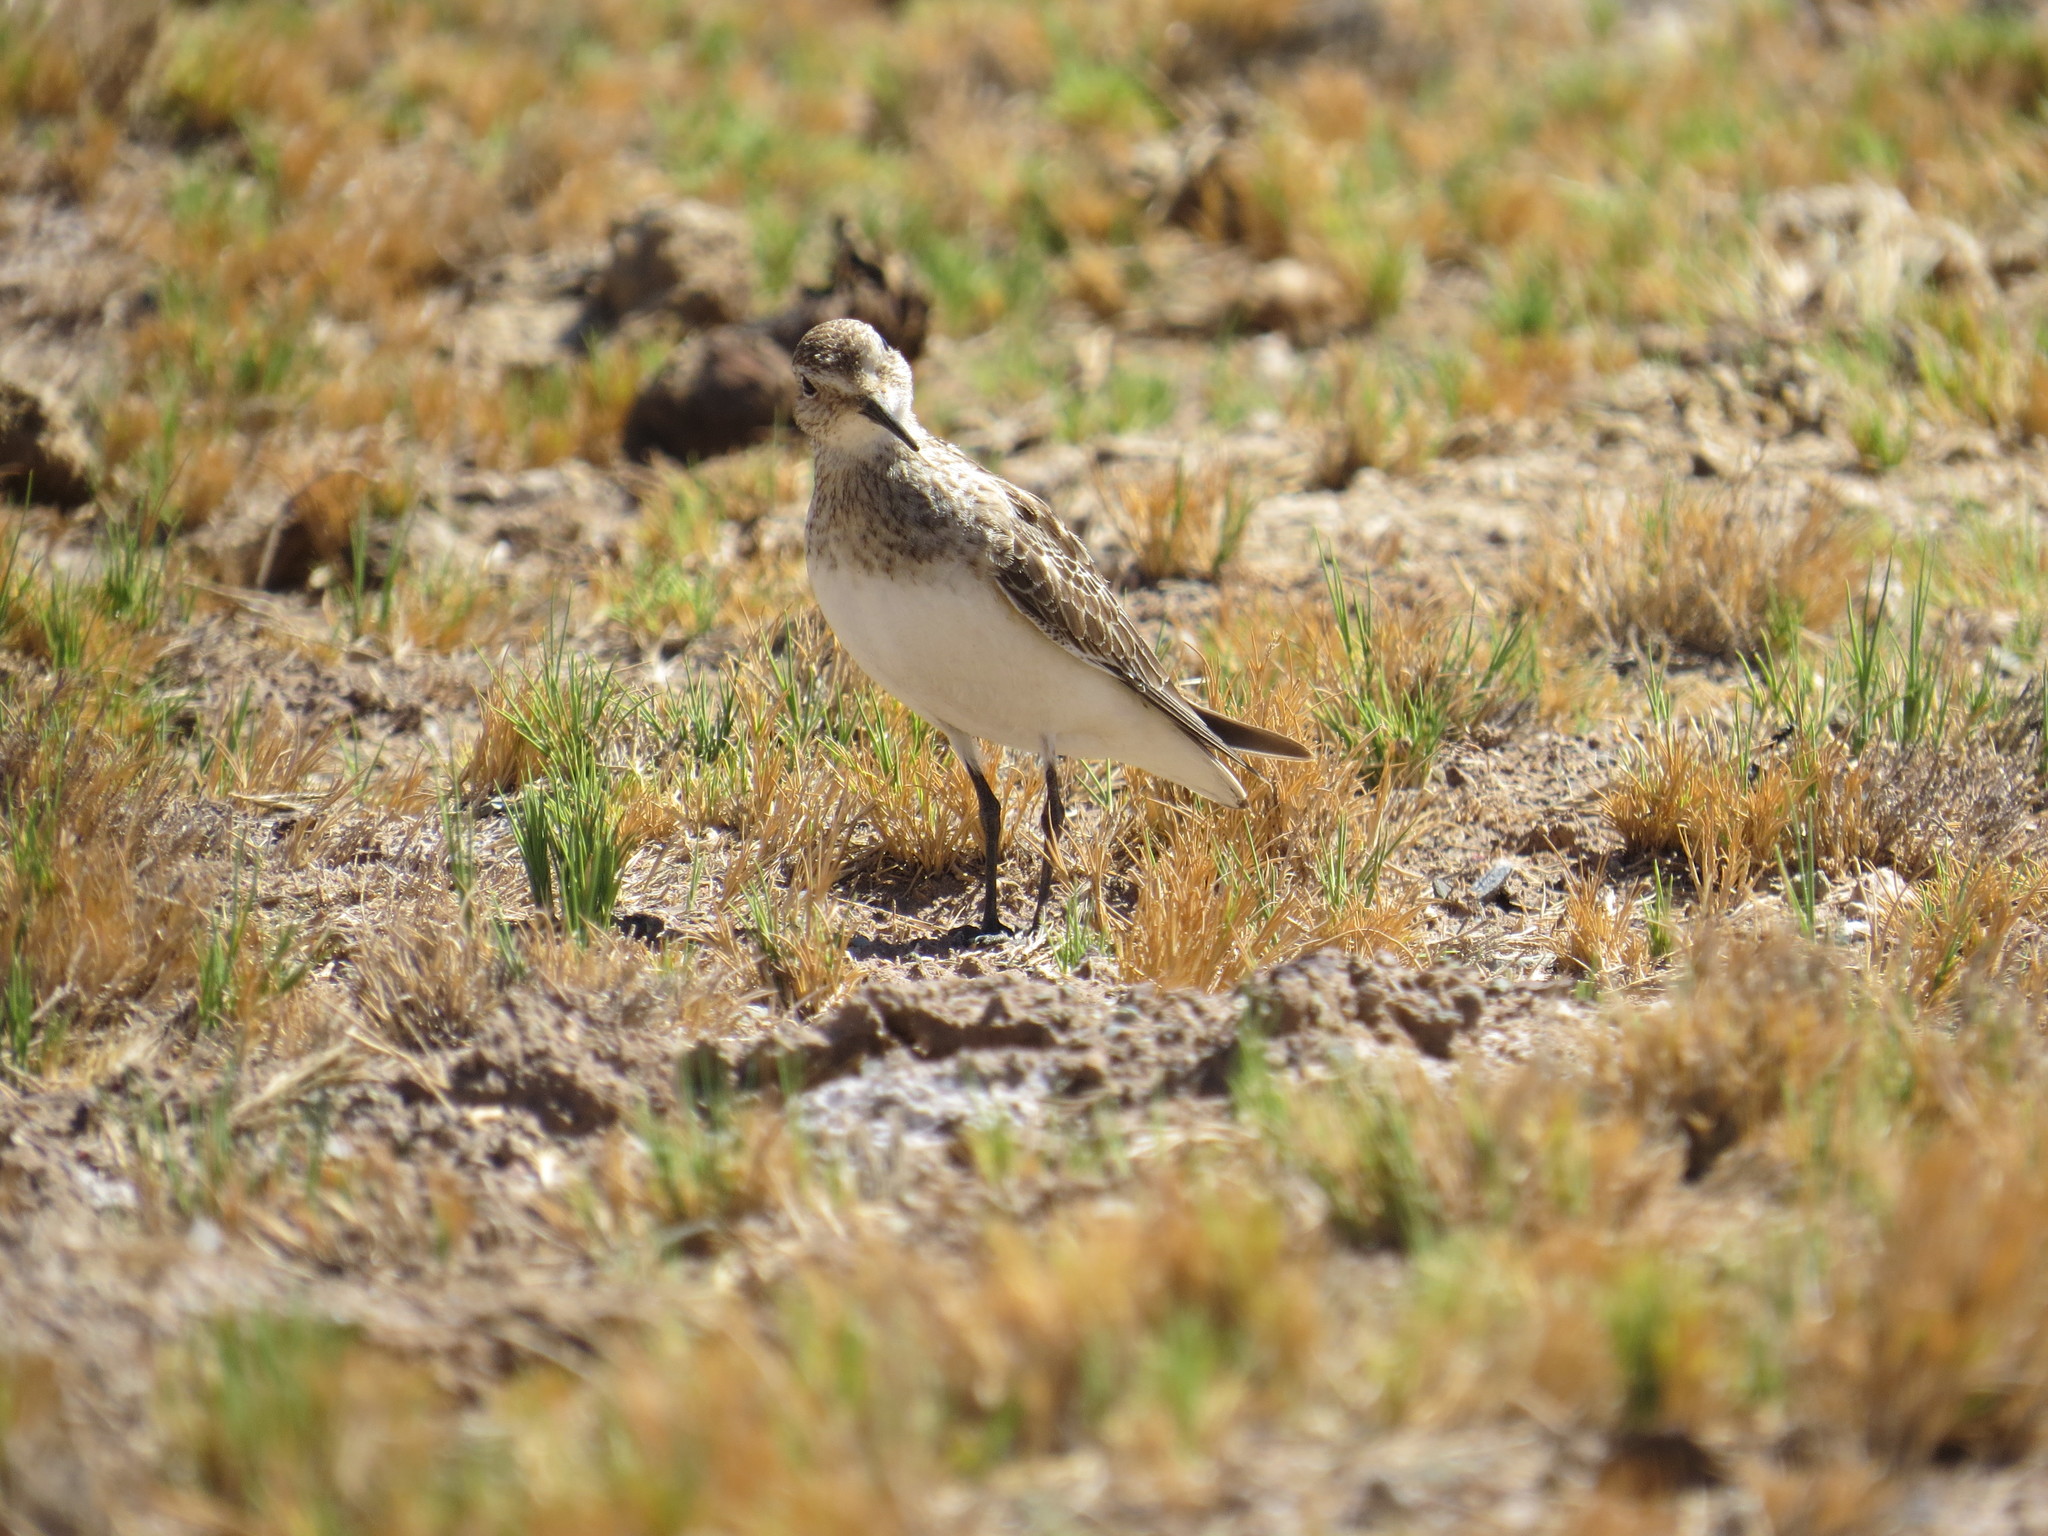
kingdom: Animalia
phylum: Chordata
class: Aves
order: Charadriiformes
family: Scolopacidae
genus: Calidris
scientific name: Calidris bairdii
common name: Baird's sandpiper
